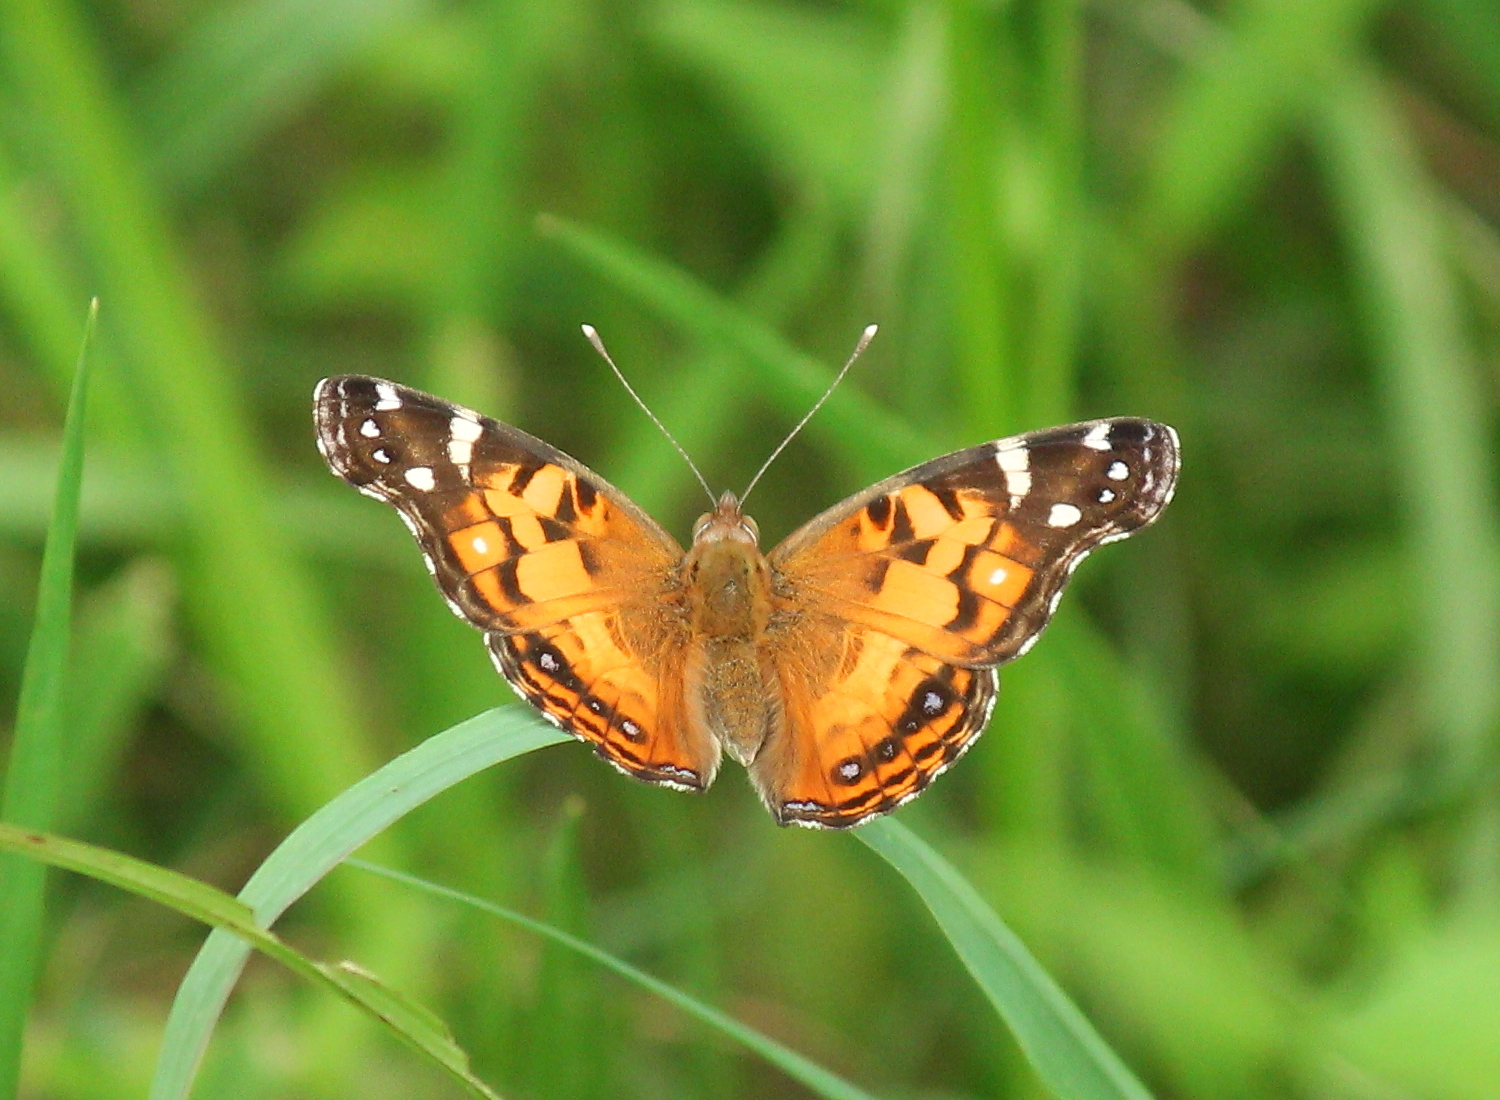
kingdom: Animalia
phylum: Arthropoda
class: Insecta
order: Lepidoptera
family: Nymphalidae
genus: Vanessa
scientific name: Vanessa virginiensis
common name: American lady
